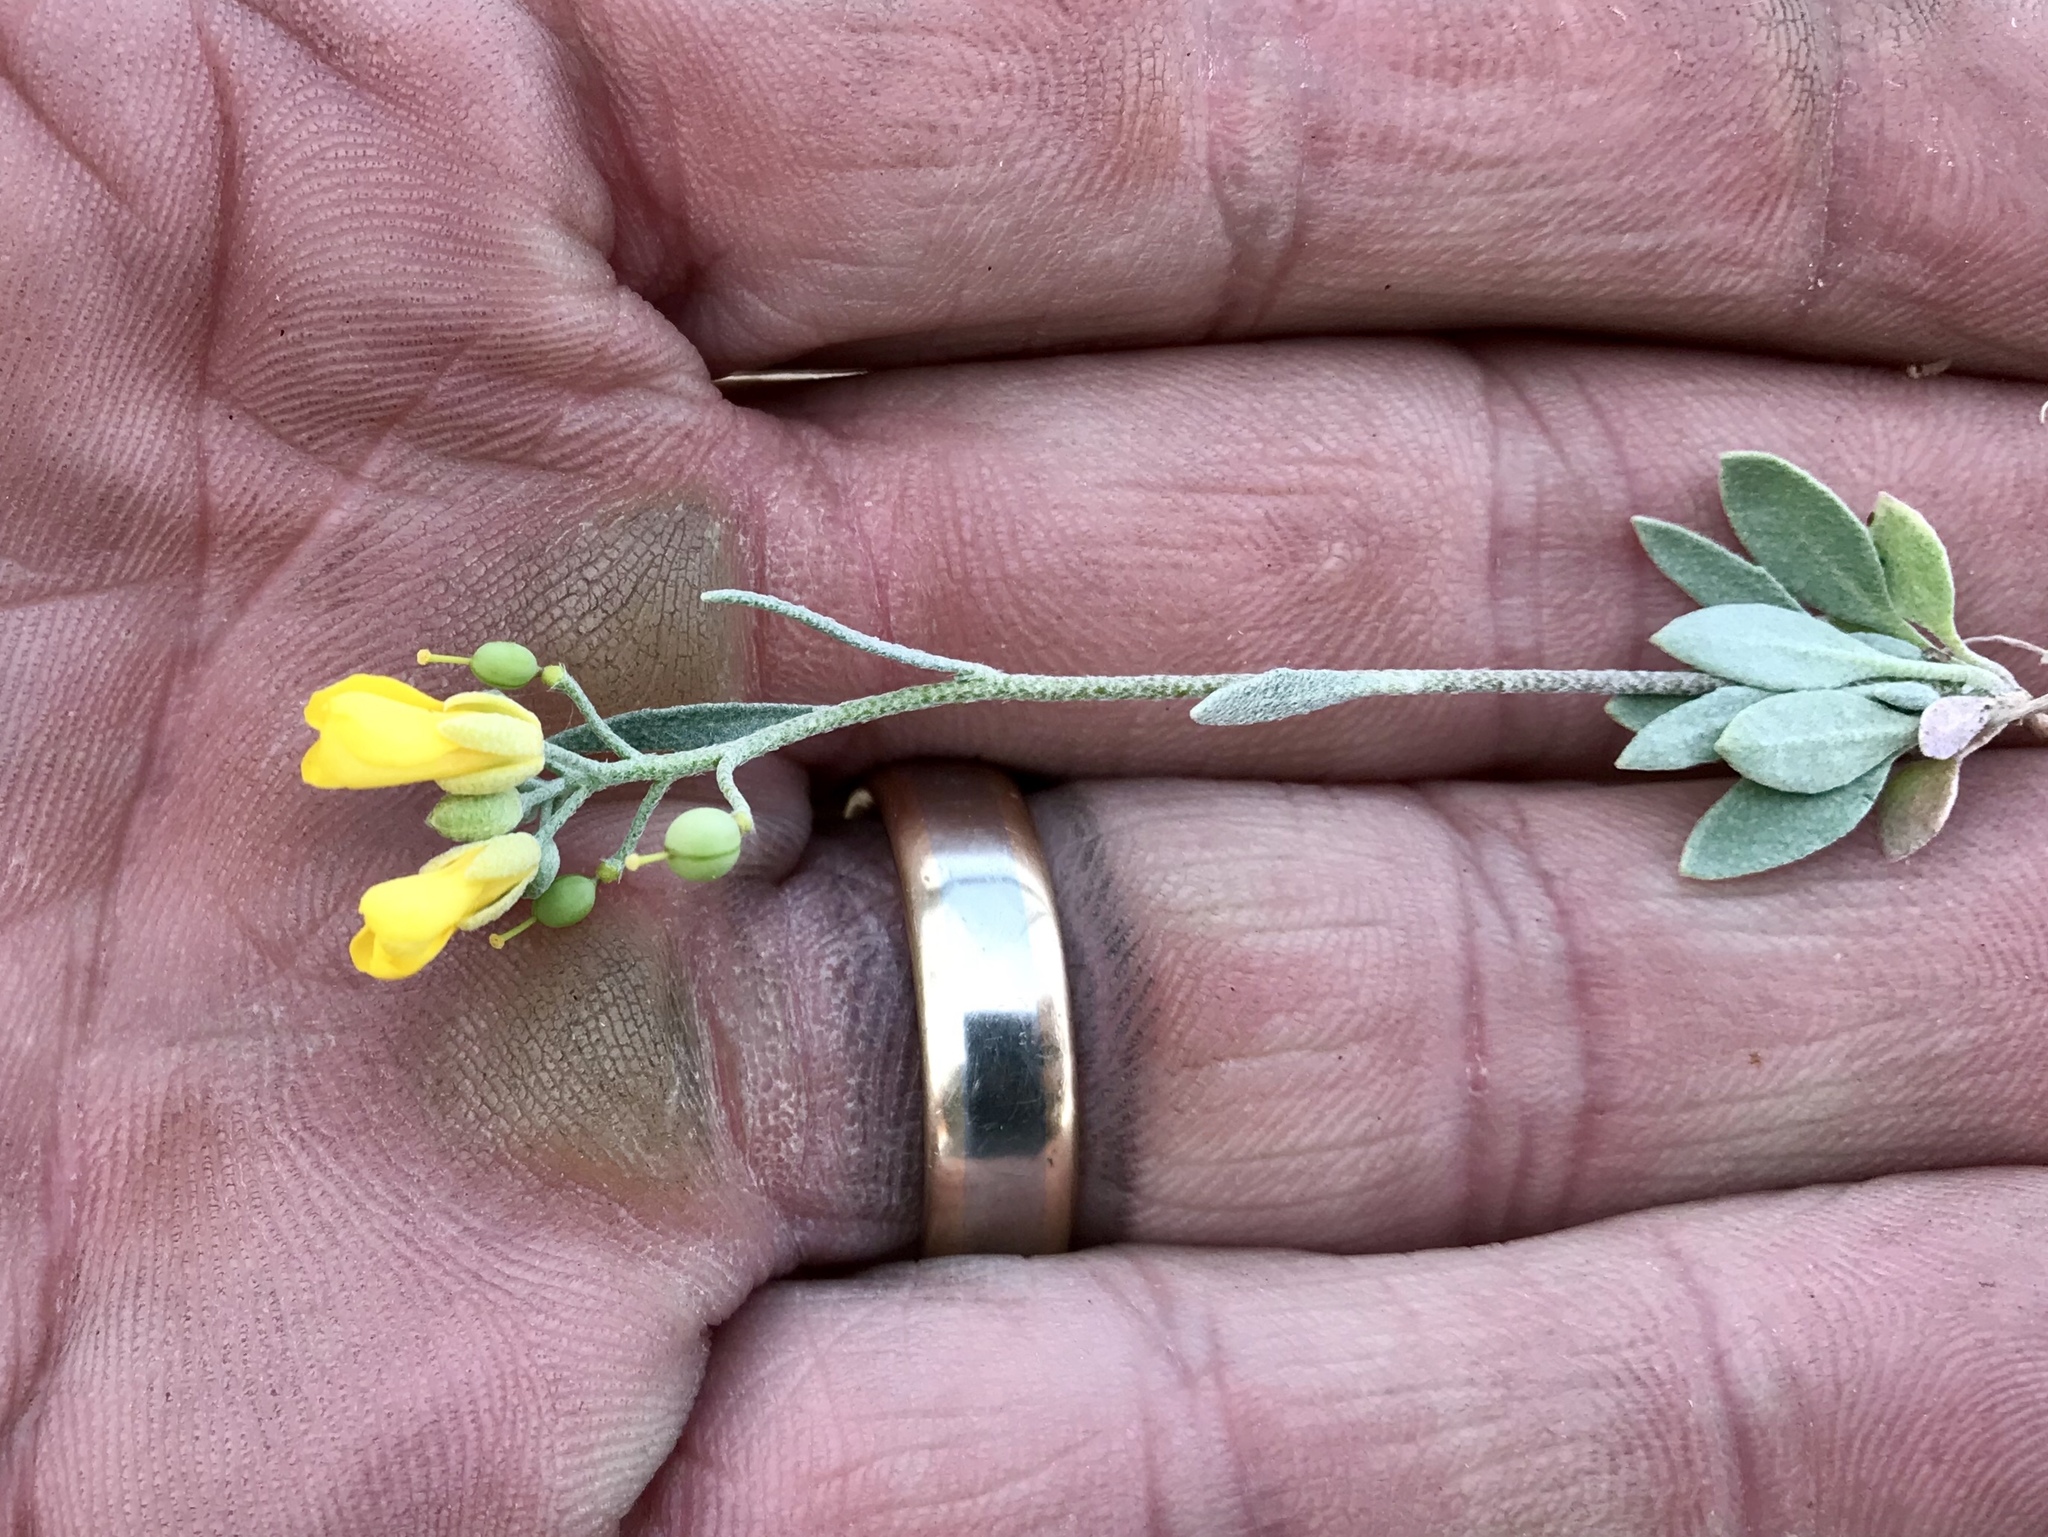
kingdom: Plantae
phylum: Tracheophyta
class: Magnoliopsida
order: Brassicales
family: Brassicaceae
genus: Physaria
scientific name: Physaria gordonii
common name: Gordon's bladderpod
